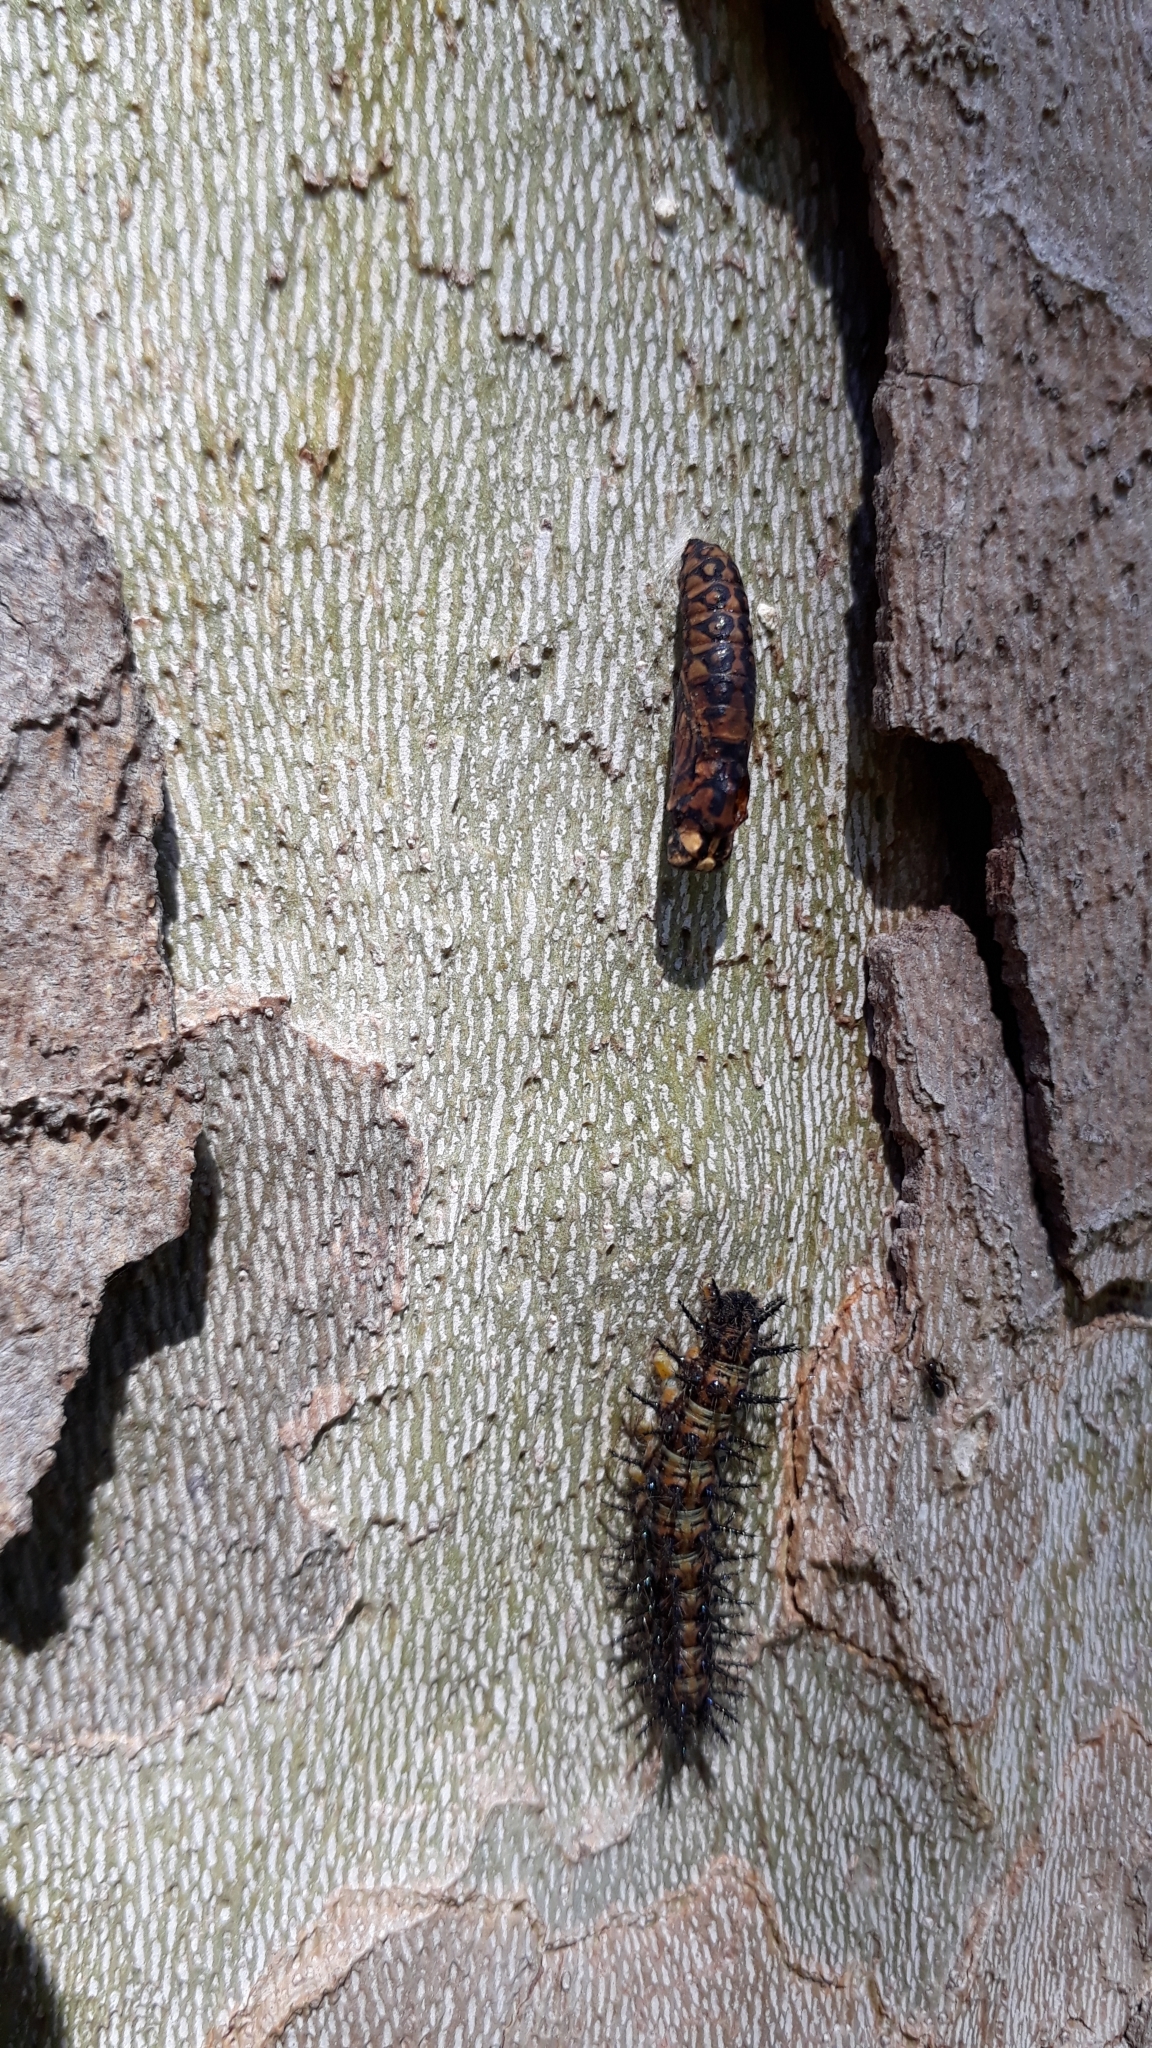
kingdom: Animalia
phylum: Arthropoda
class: Insecta
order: Lepidoptera
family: Nymphalidae
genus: Acraea
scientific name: Acraea horta
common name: Garden acraea
